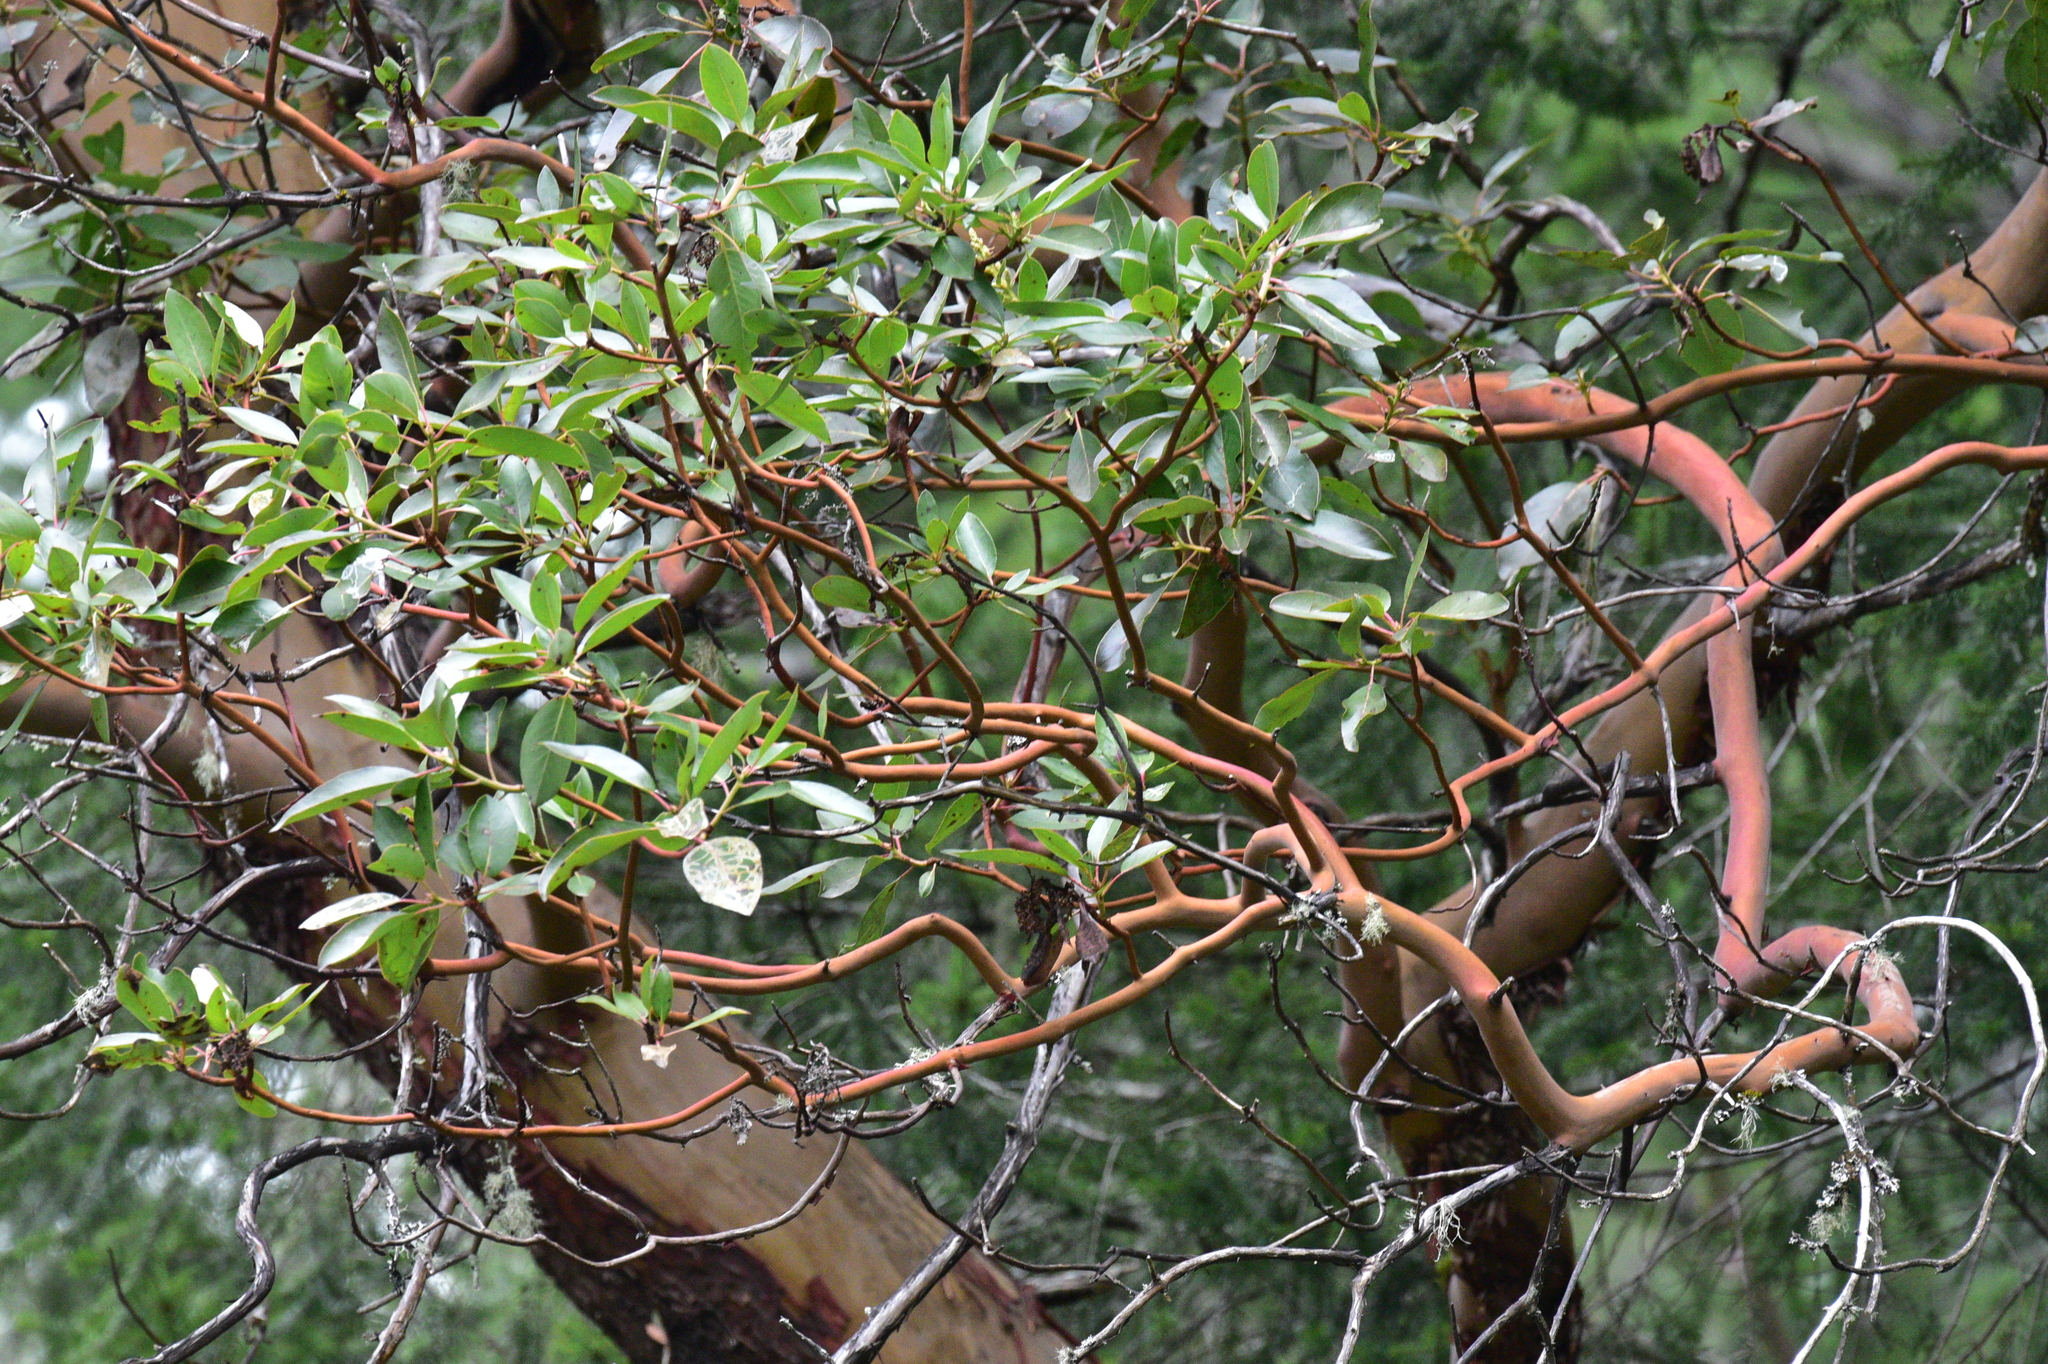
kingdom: Plantae
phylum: Tracheophyta
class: Magnoliopsida
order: Ericales
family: Ericaceae
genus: Arbutus
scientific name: Arbutus menziesii
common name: Pacific madrone
